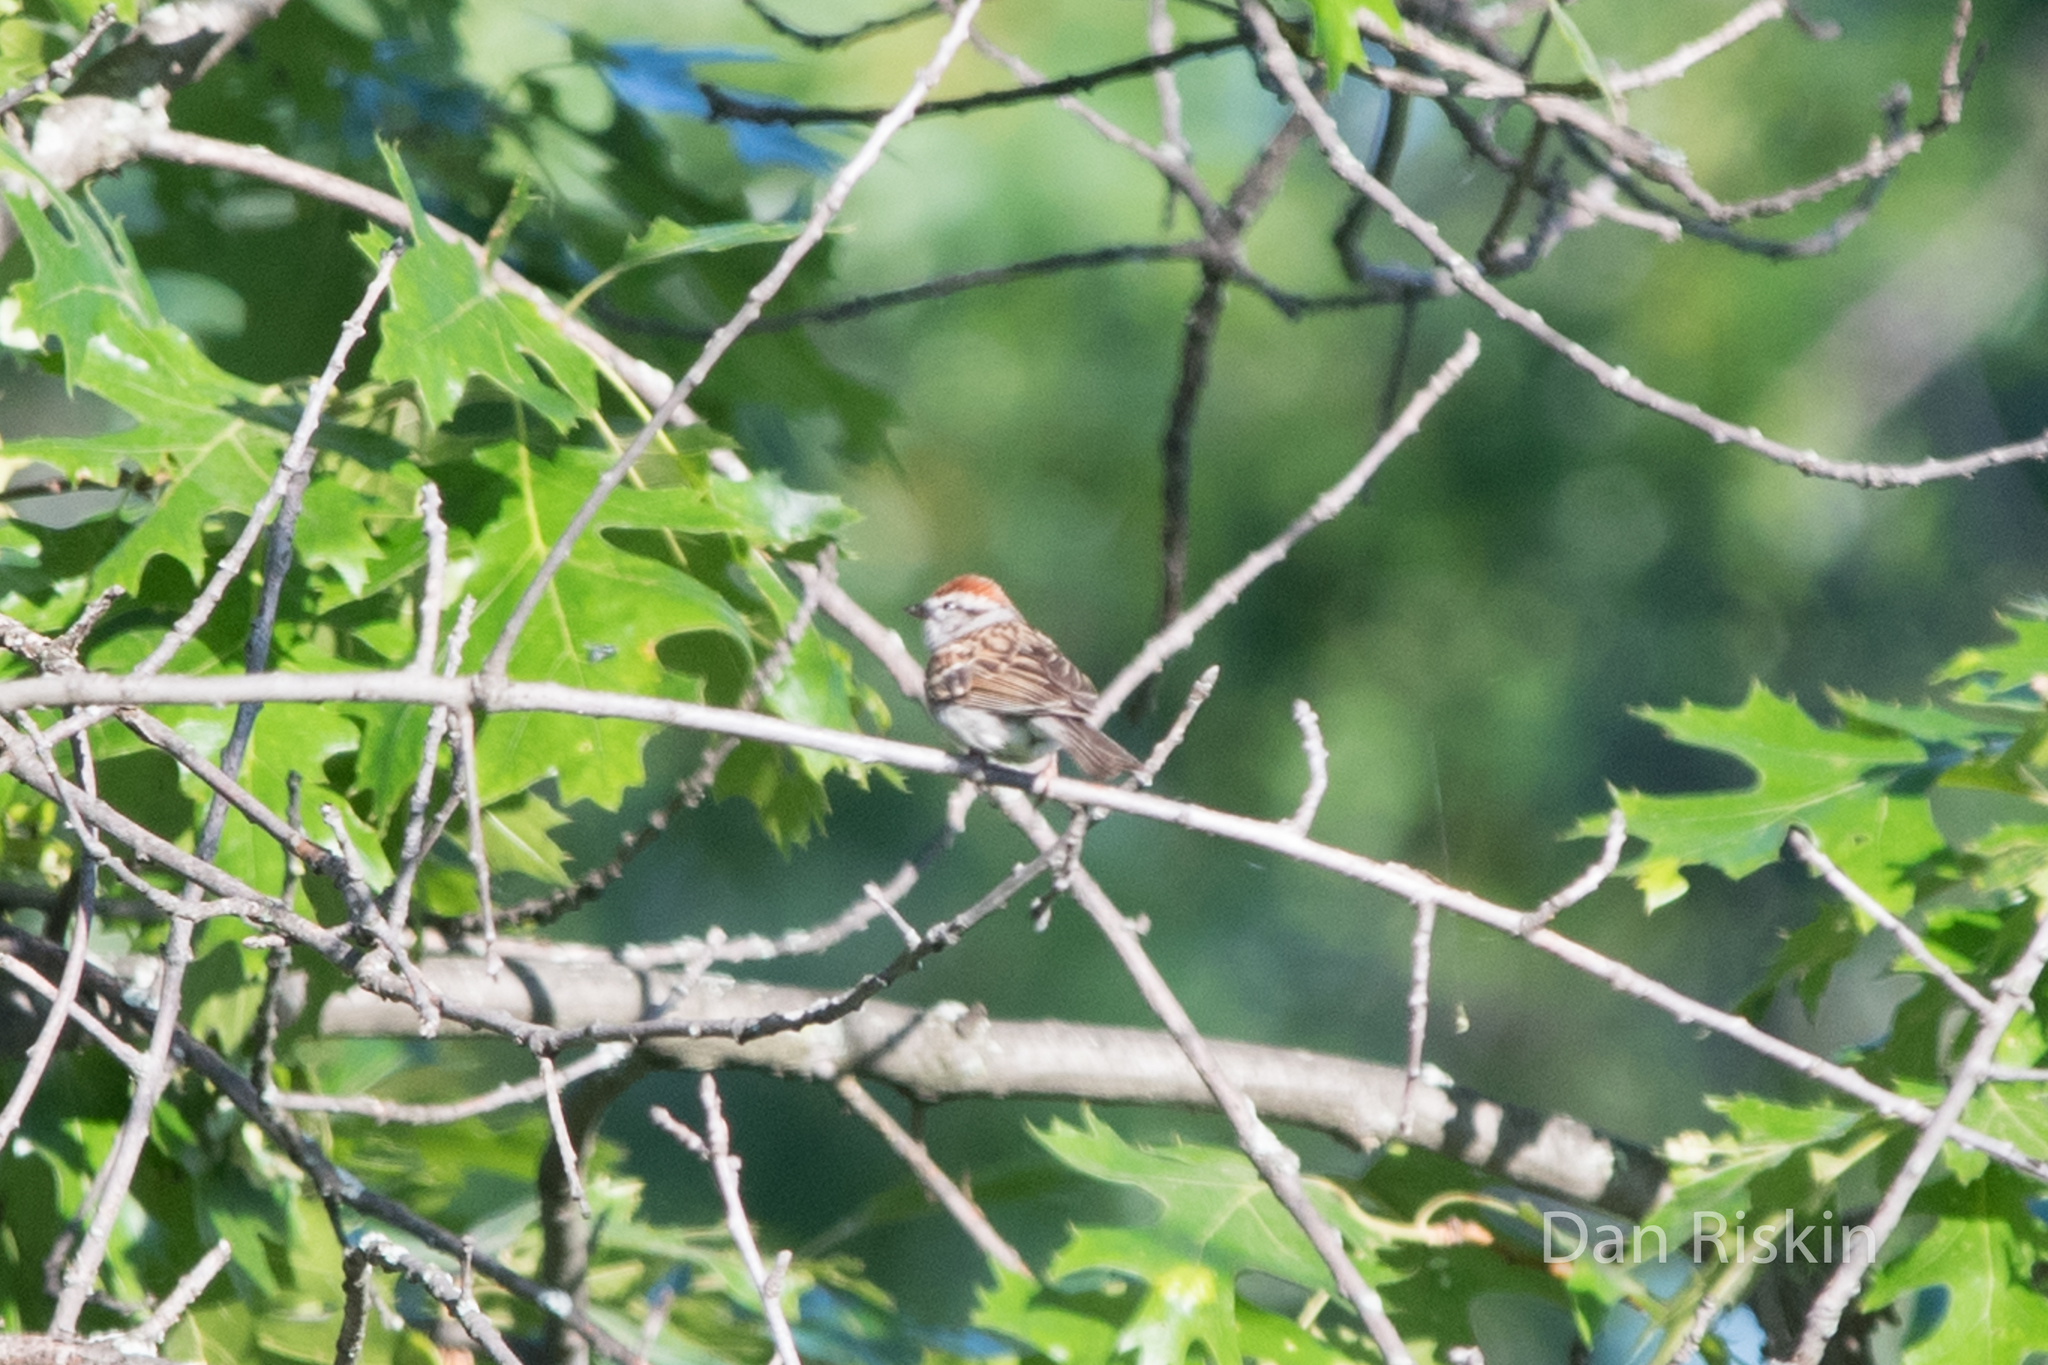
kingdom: Animalia
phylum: Chordata
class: Aves
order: Passeriformes
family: Passerellidae
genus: Spizella
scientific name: Spizella passerina
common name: Chipping sparrow
